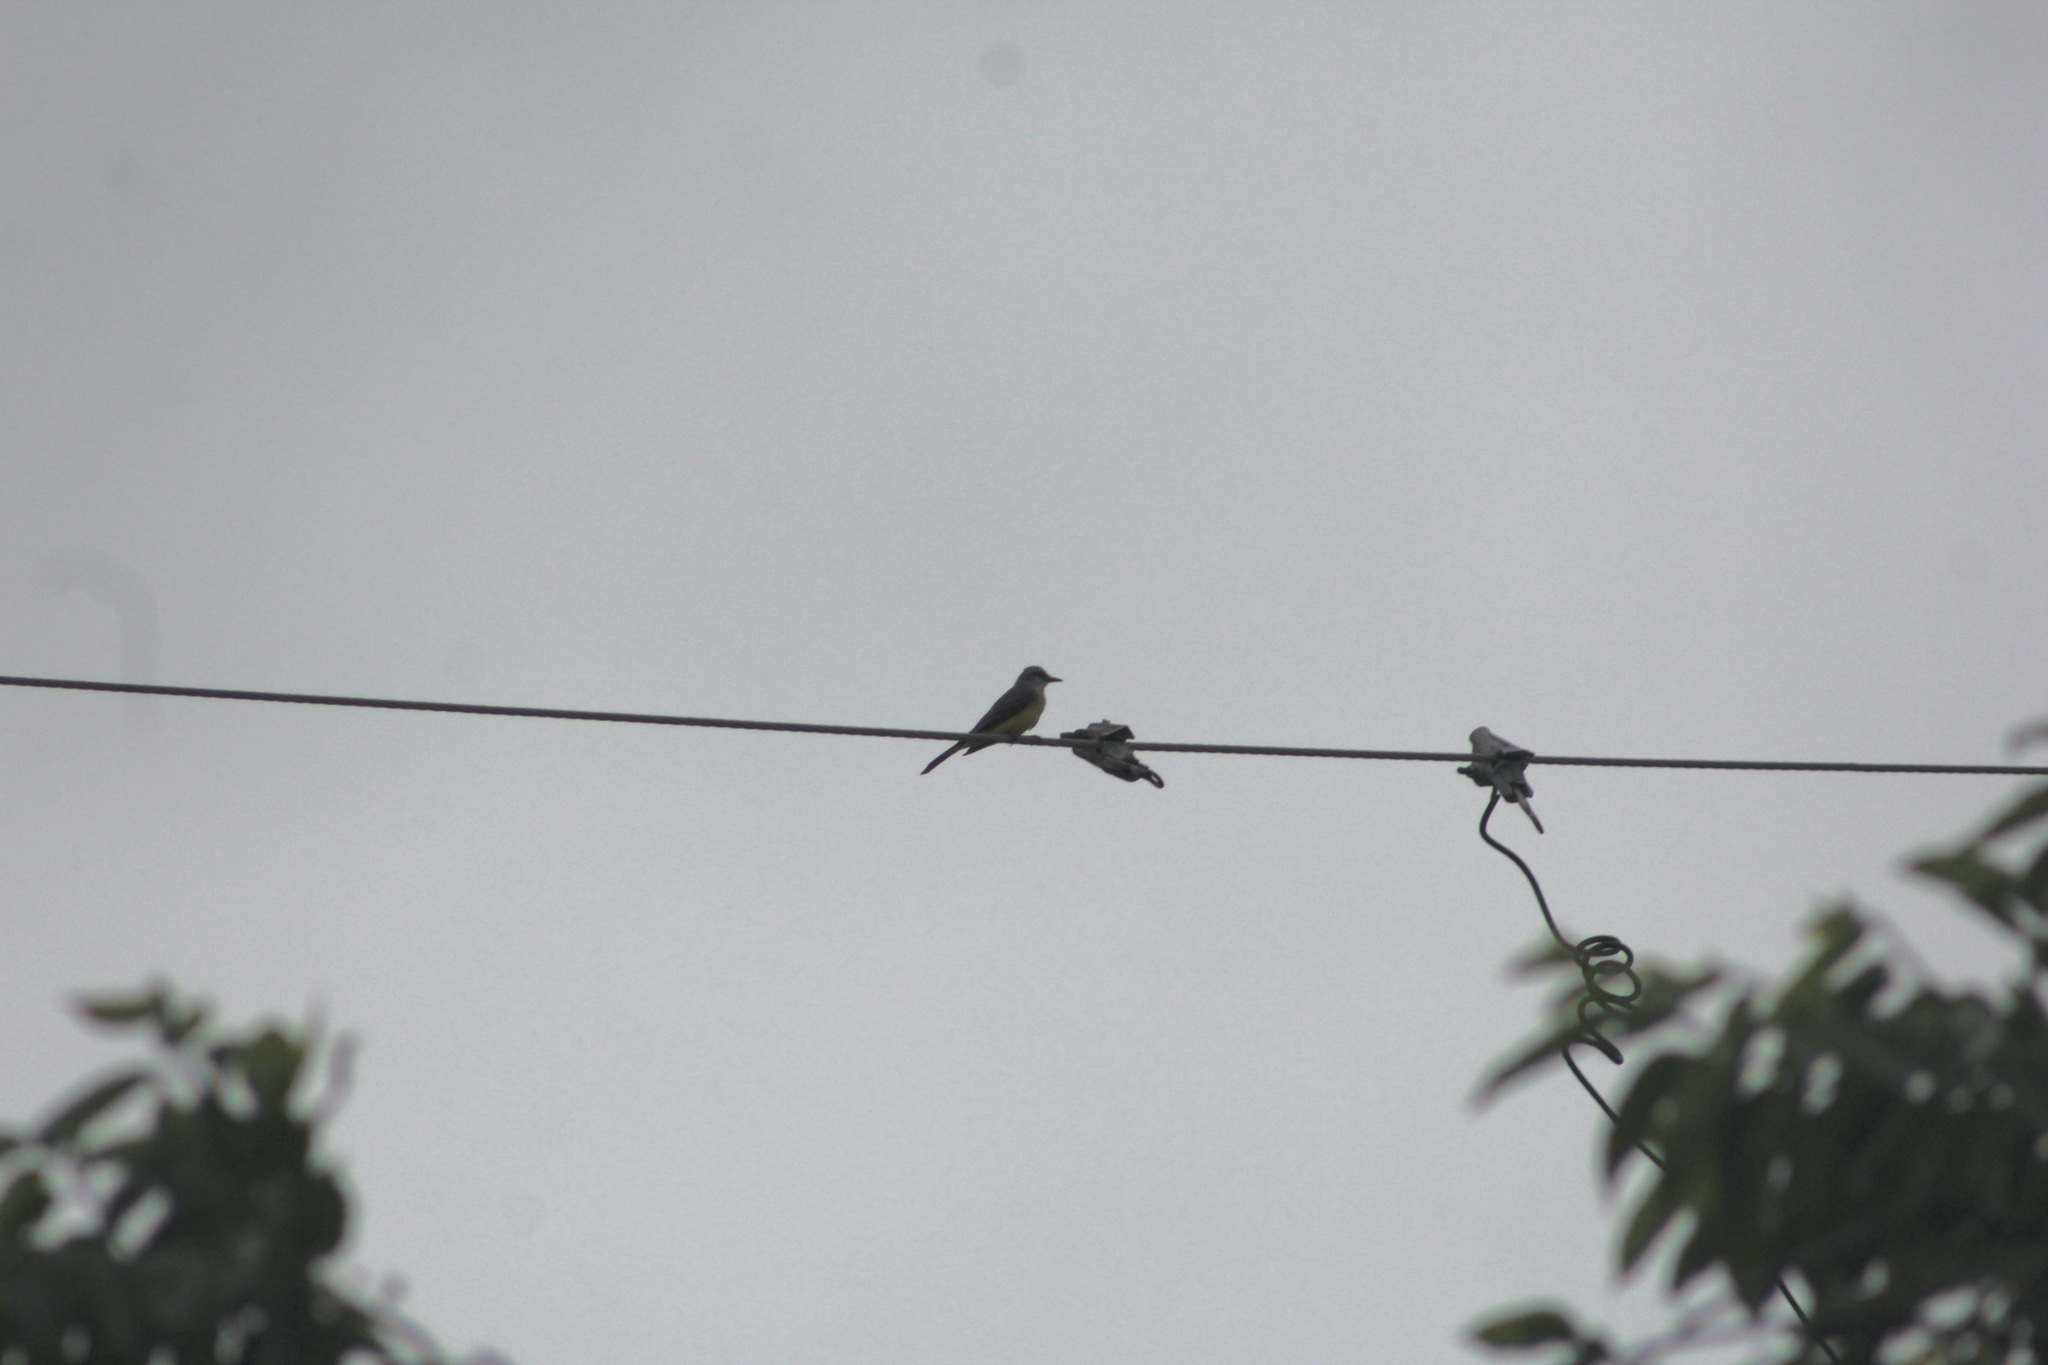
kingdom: Animalia
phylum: Chordata
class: Aves
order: Passeriformes
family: Tyrannidae
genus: Tyrannus
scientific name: Tyrannus melancholicus
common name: Tropical kingbird
